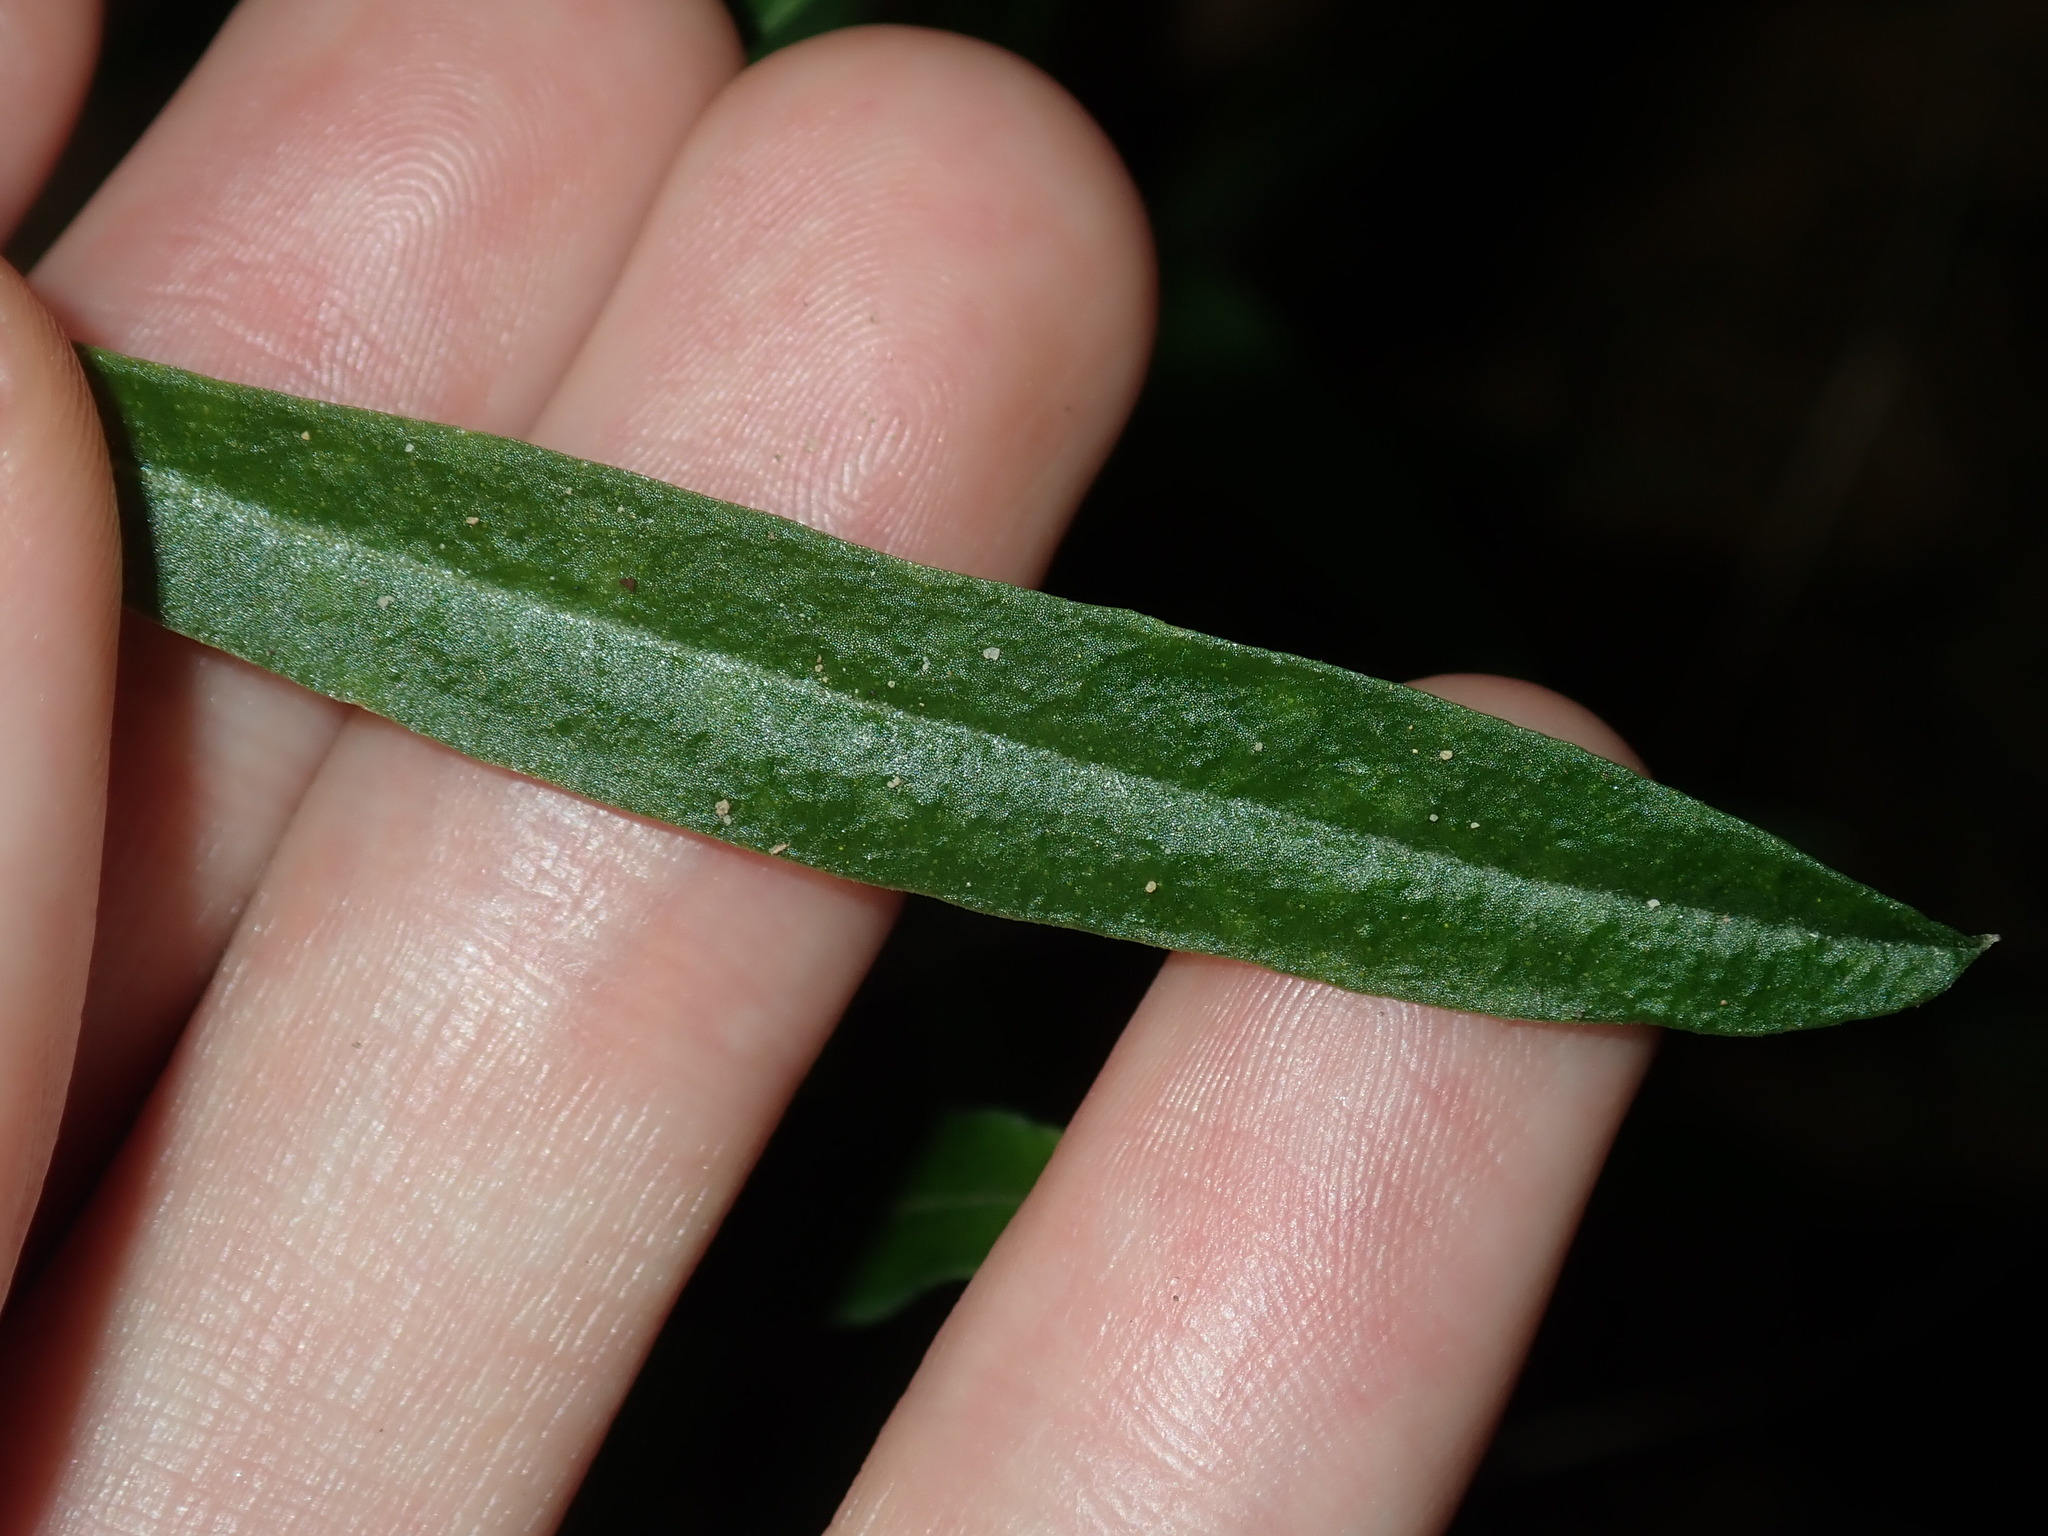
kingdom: Plantae
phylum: Tracheophyta
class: Magnoliopsida
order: Sapindales
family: Rutaceae
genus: Crowea
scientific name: Crowea saligna
